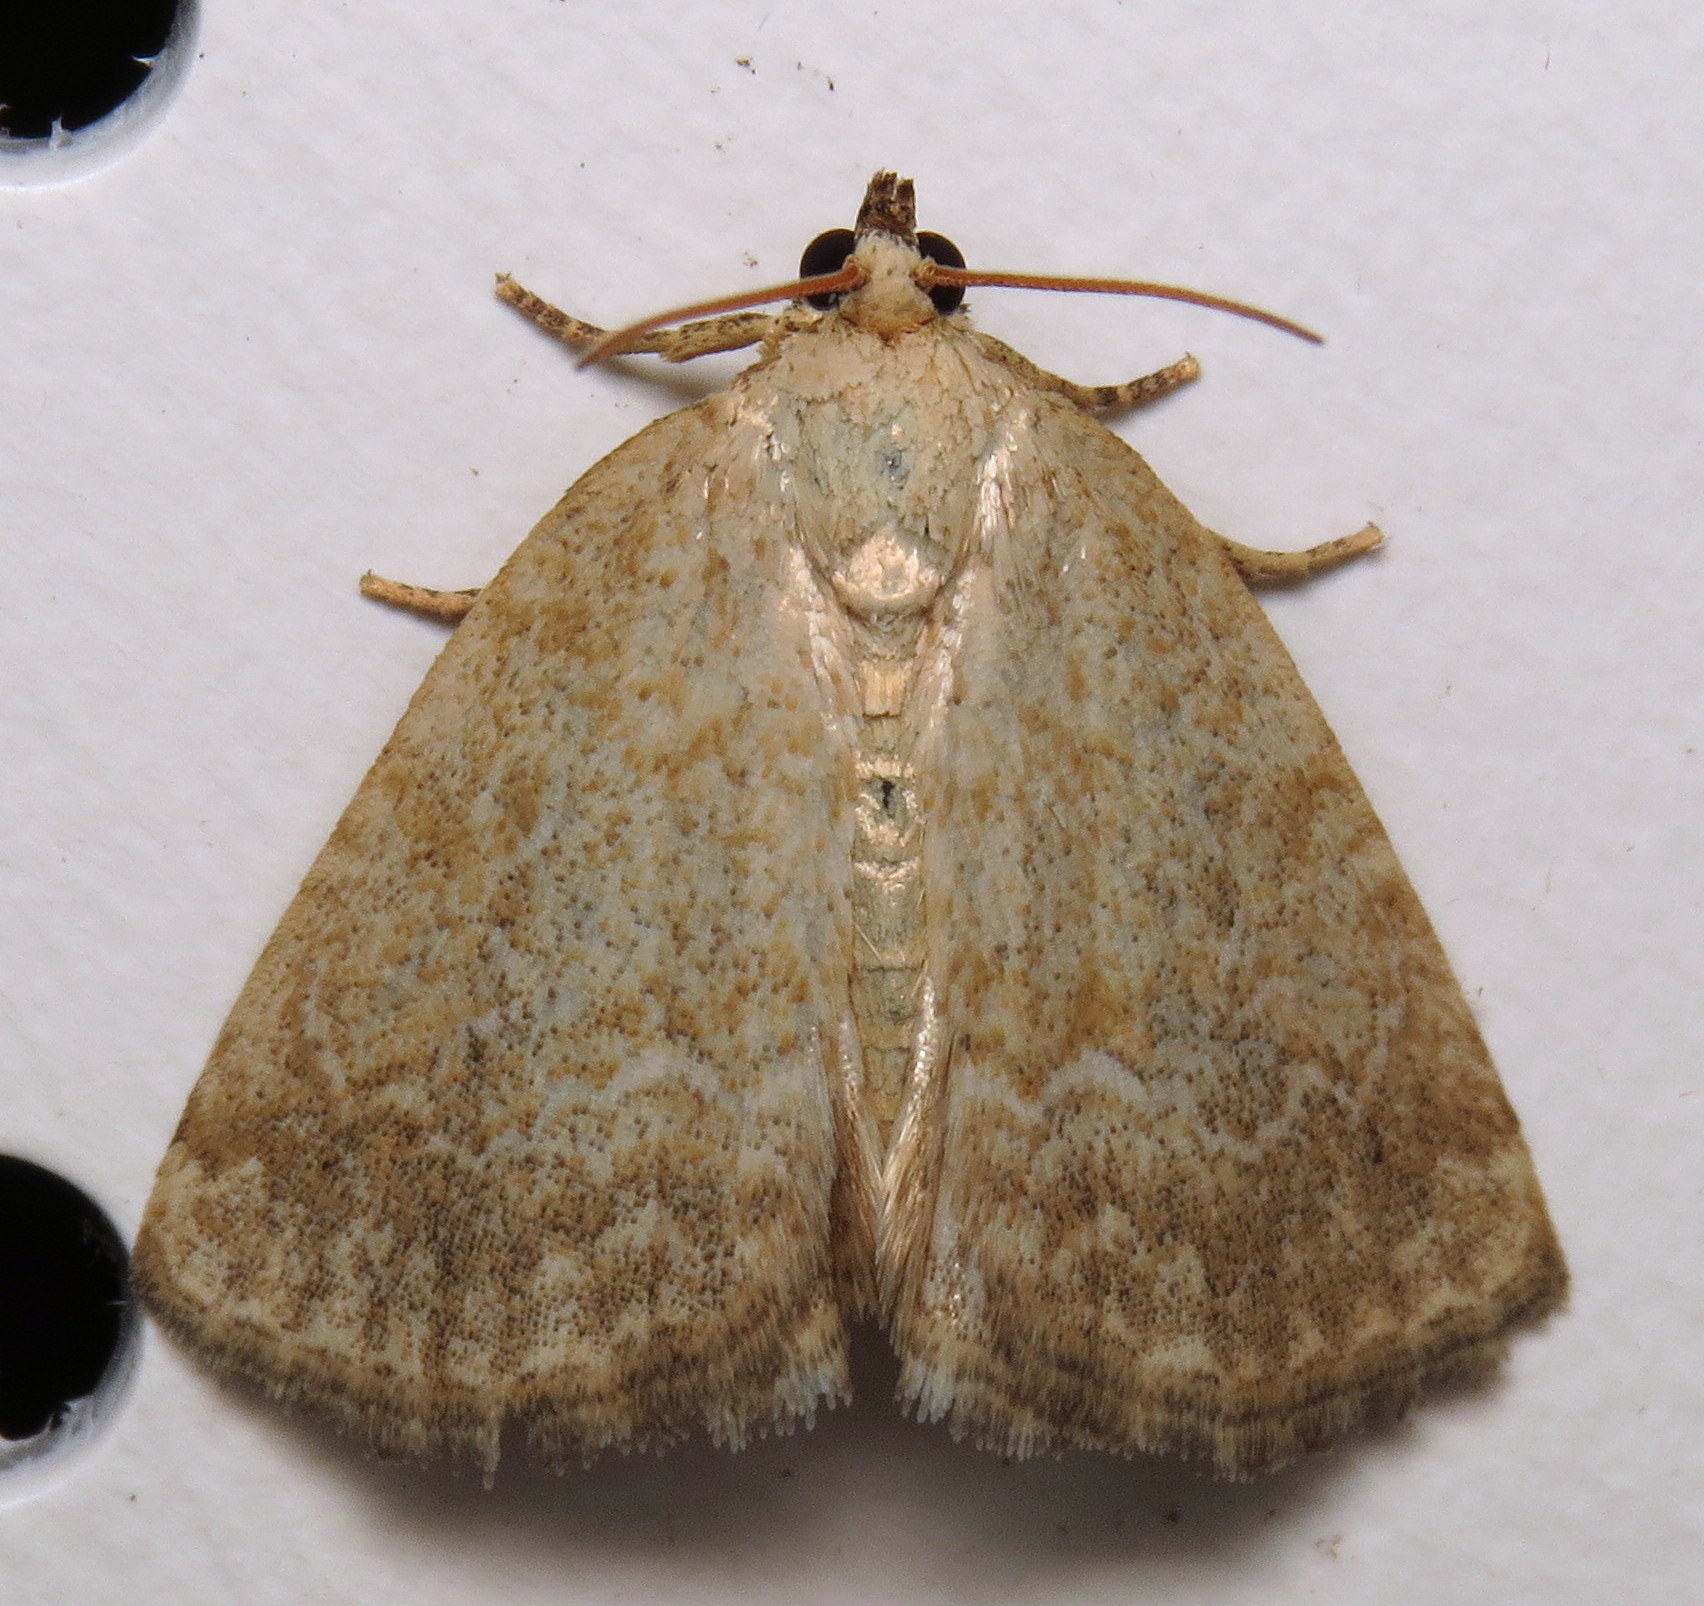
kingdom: Animalia
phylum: Arthropoda
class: Insecta
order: Lepidoptera
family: Noctuidae
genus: Protodeltote
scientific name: Protodeltote albidula
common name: Pale glyph
